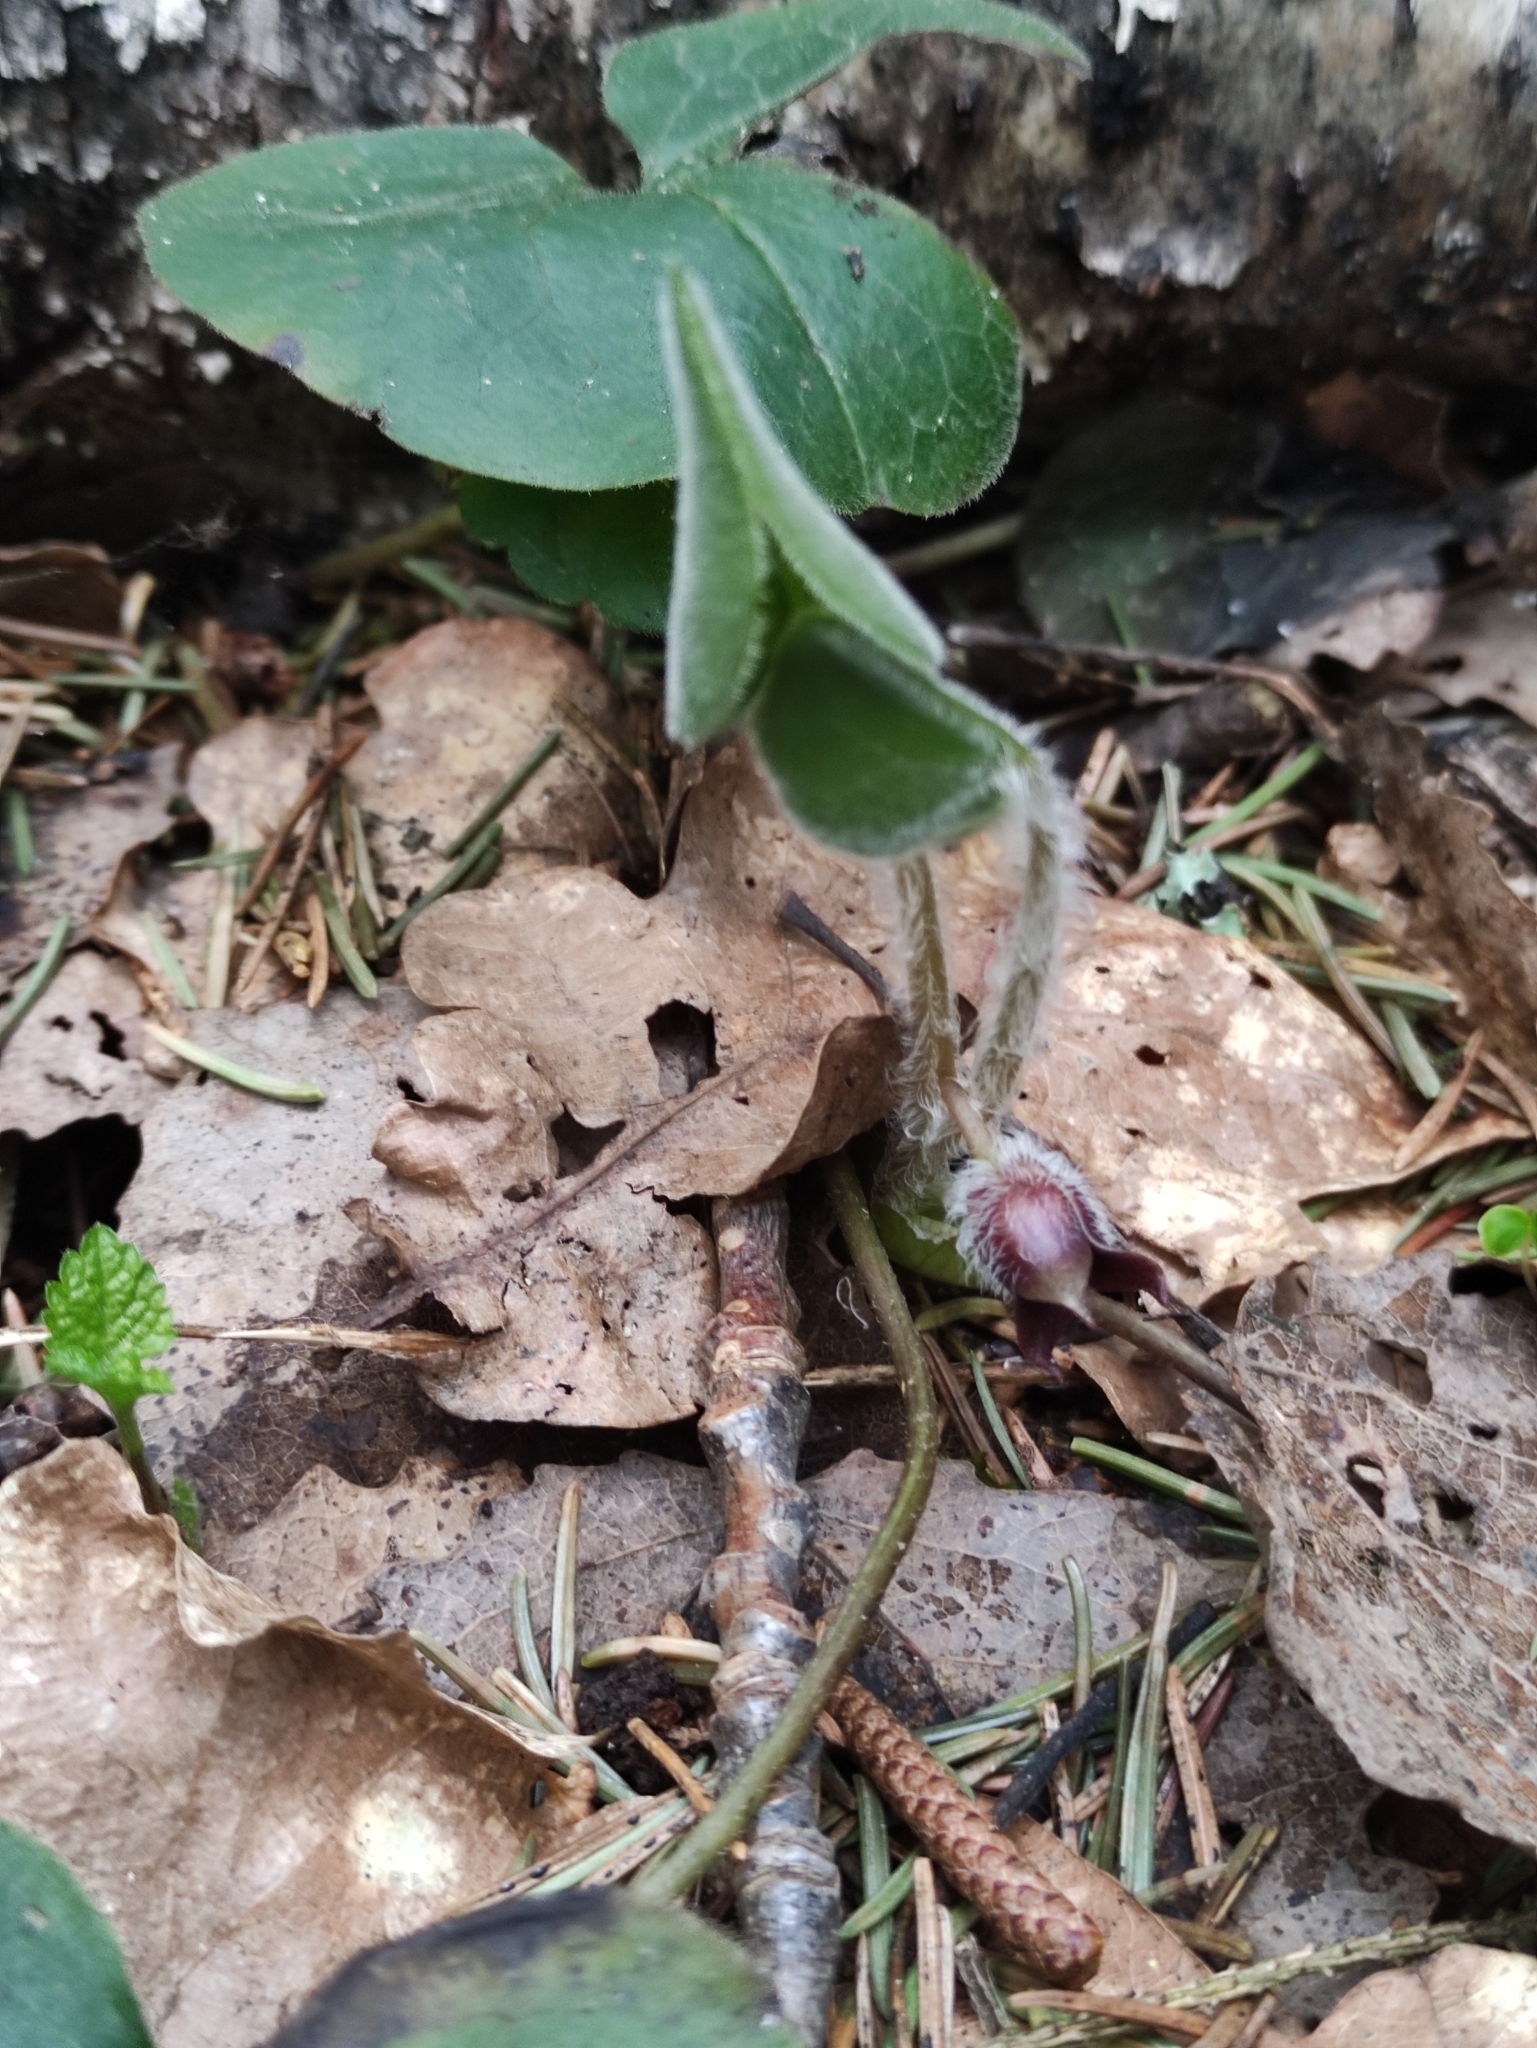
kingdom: Plantae
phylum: Tracheophyta
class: Magnoliopsida
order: Piperales
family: Aristolochiaceae
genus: Asarum
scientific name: Asarum europaeum
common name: Asarabacca
